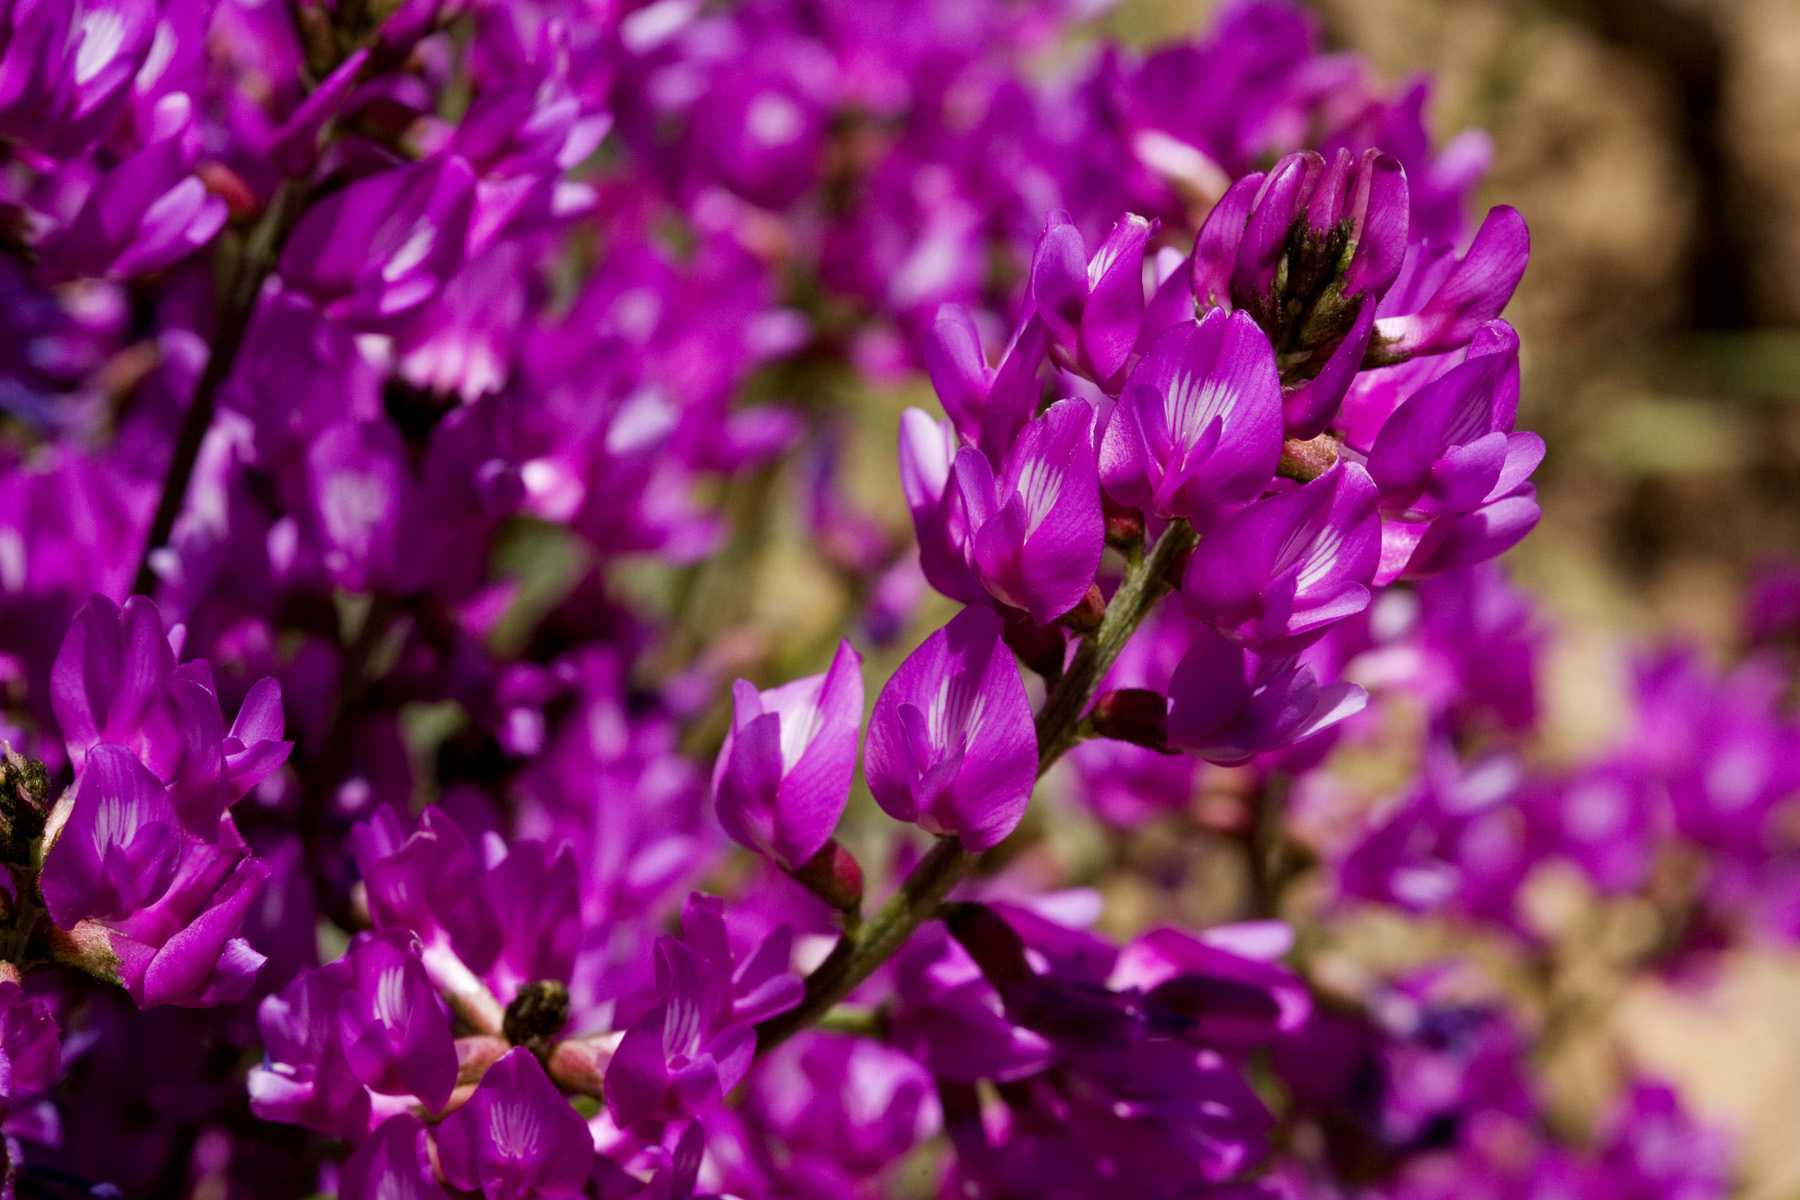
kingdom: Plantae
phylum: Tracheophyta
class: Magnoliopsida
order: Fabales
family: Fabaceae
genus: Astragalus
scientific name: Astragalus coltonii
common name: Colton's milkvetch
